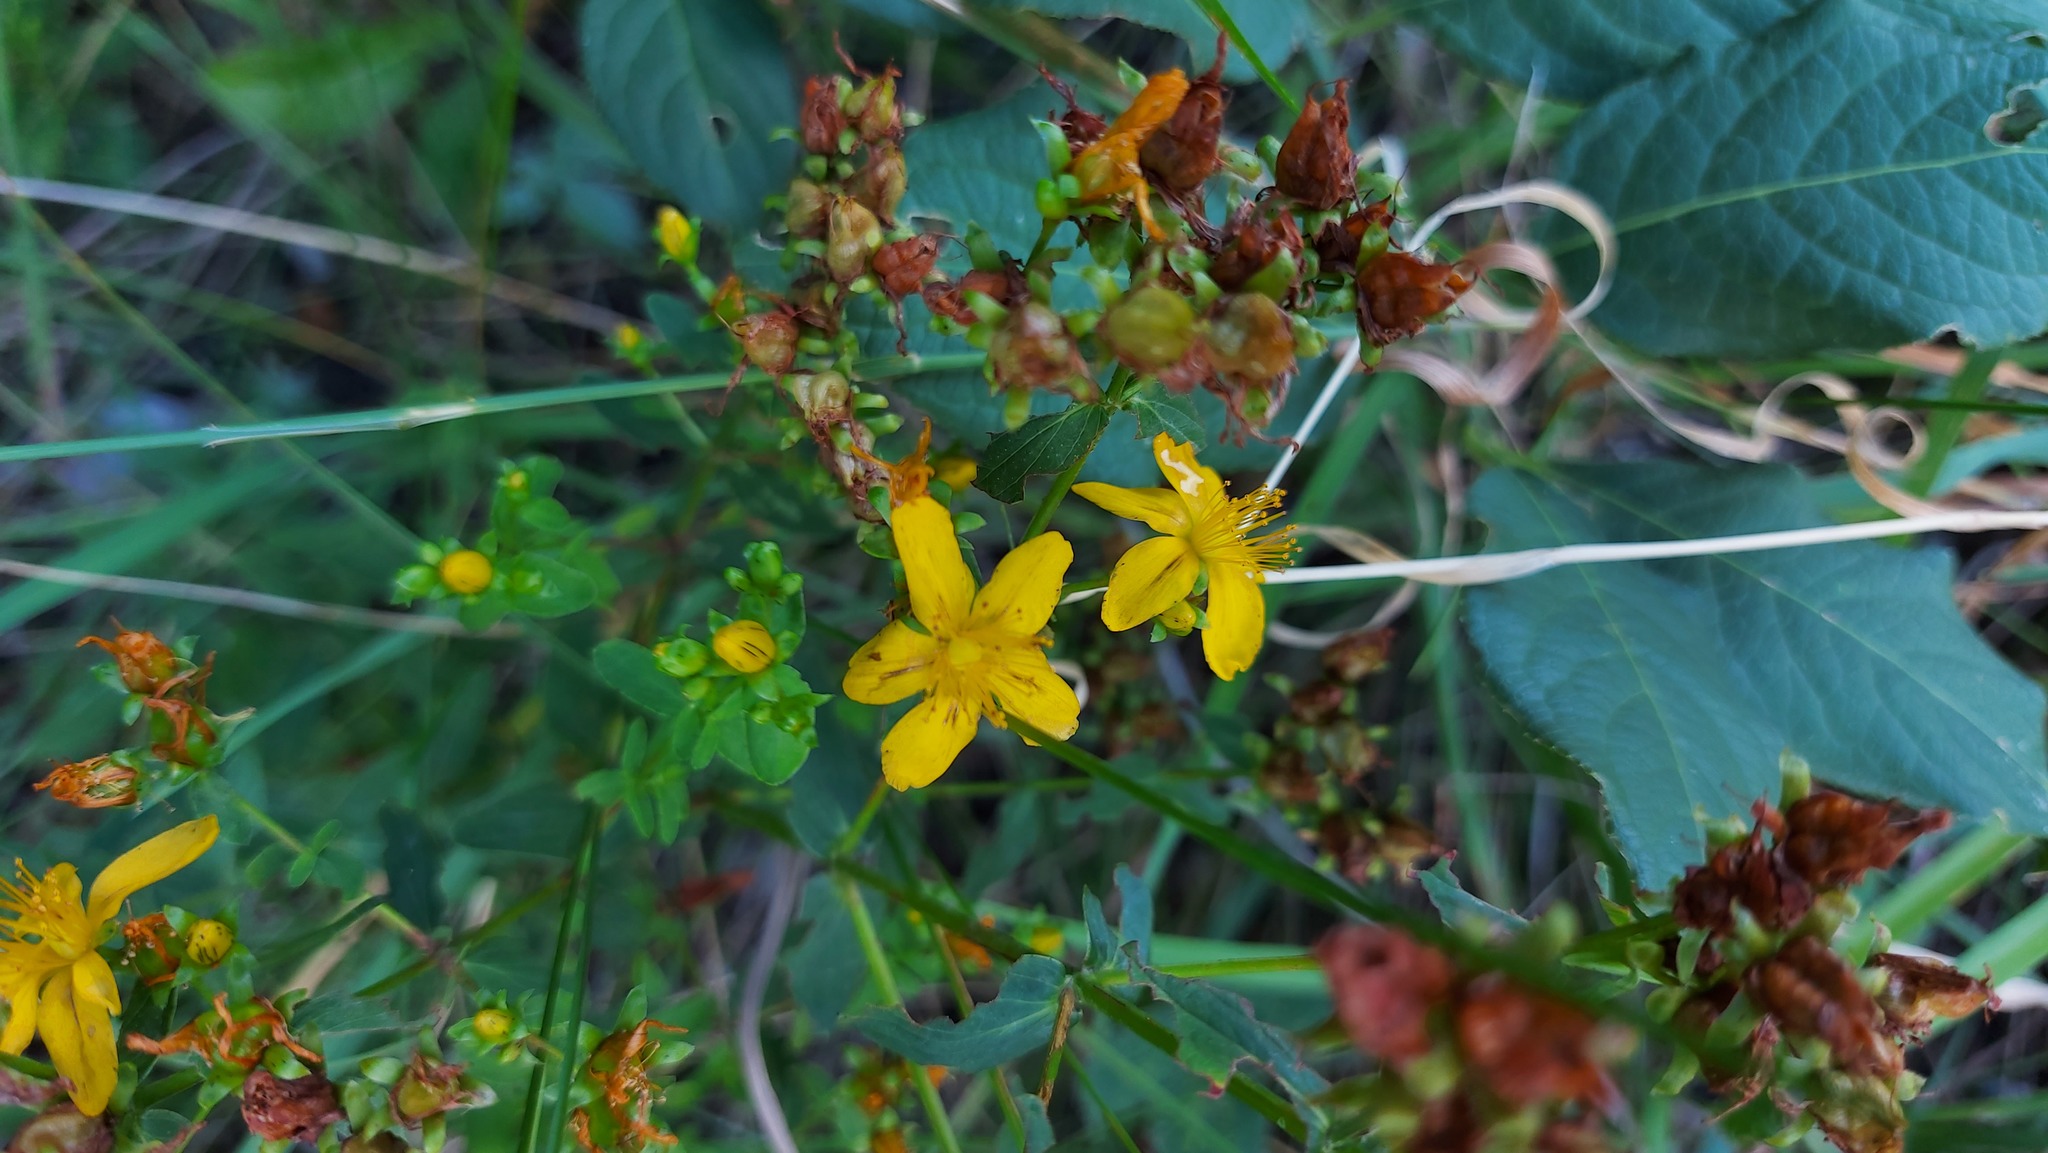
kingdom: Plantae
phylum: Tracheophyta
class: Magnoliopsida
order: Malpighiales
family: Hypericaceae
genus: Hypericum
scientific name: Hypericum perforatum
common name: Common st. johnswort
